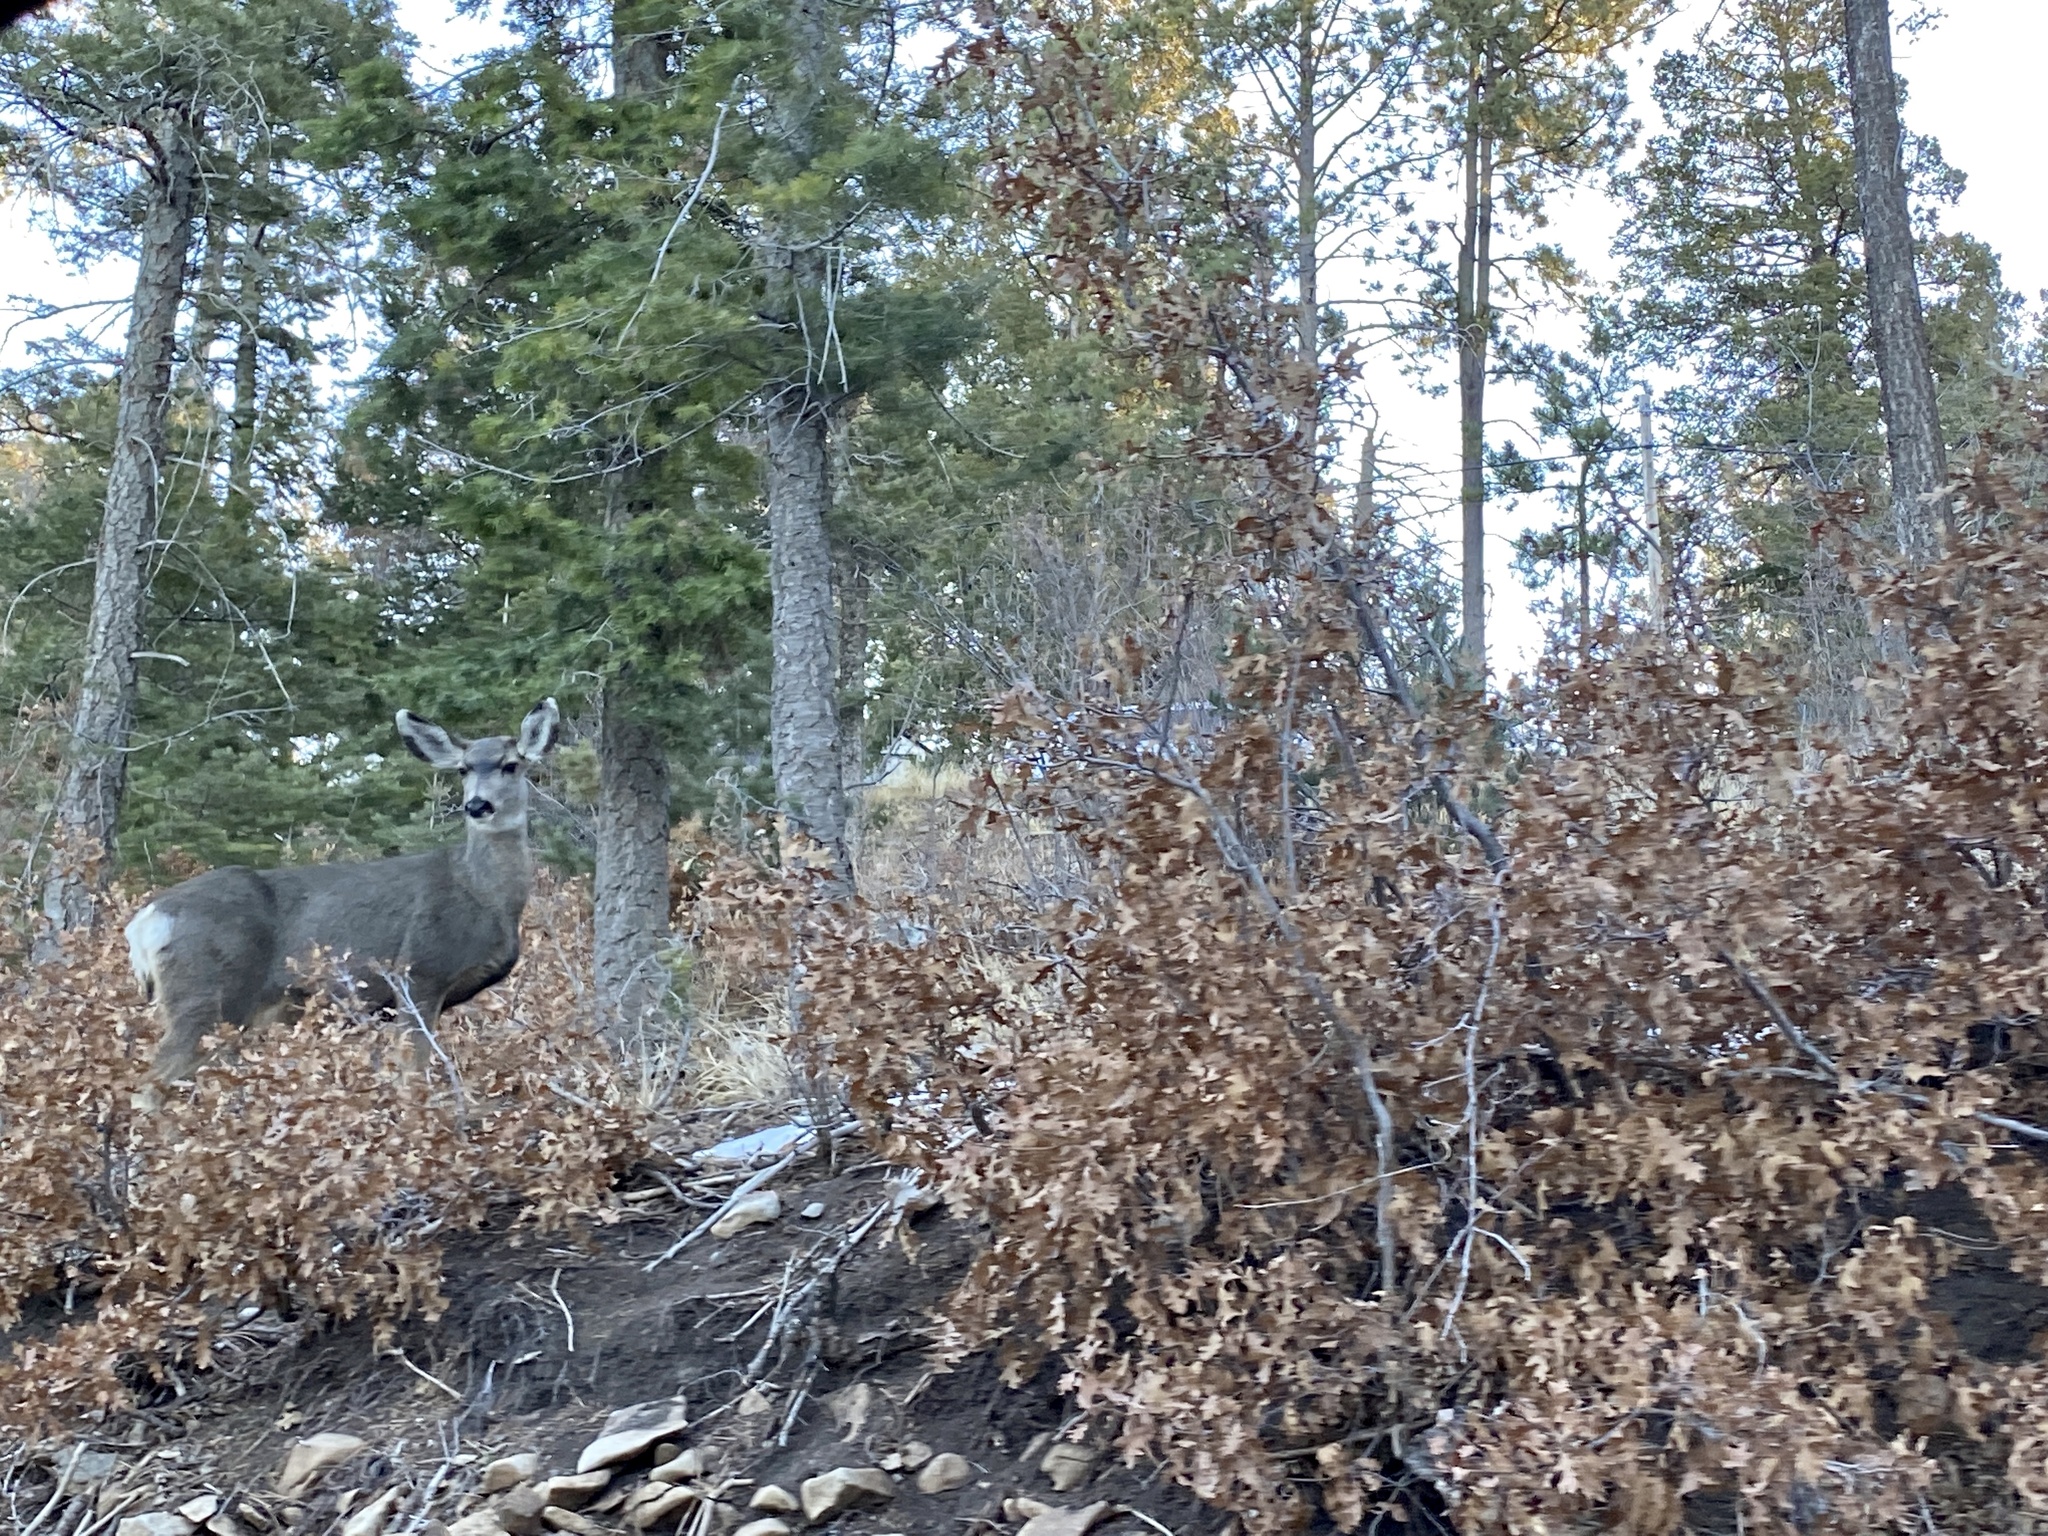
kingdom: Animalia
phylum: Chordata
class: Mammalia
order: Artiodactyla
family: Cervidae
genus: Odocoileus
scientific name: Odocoileus hemionus
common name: Mule deer
